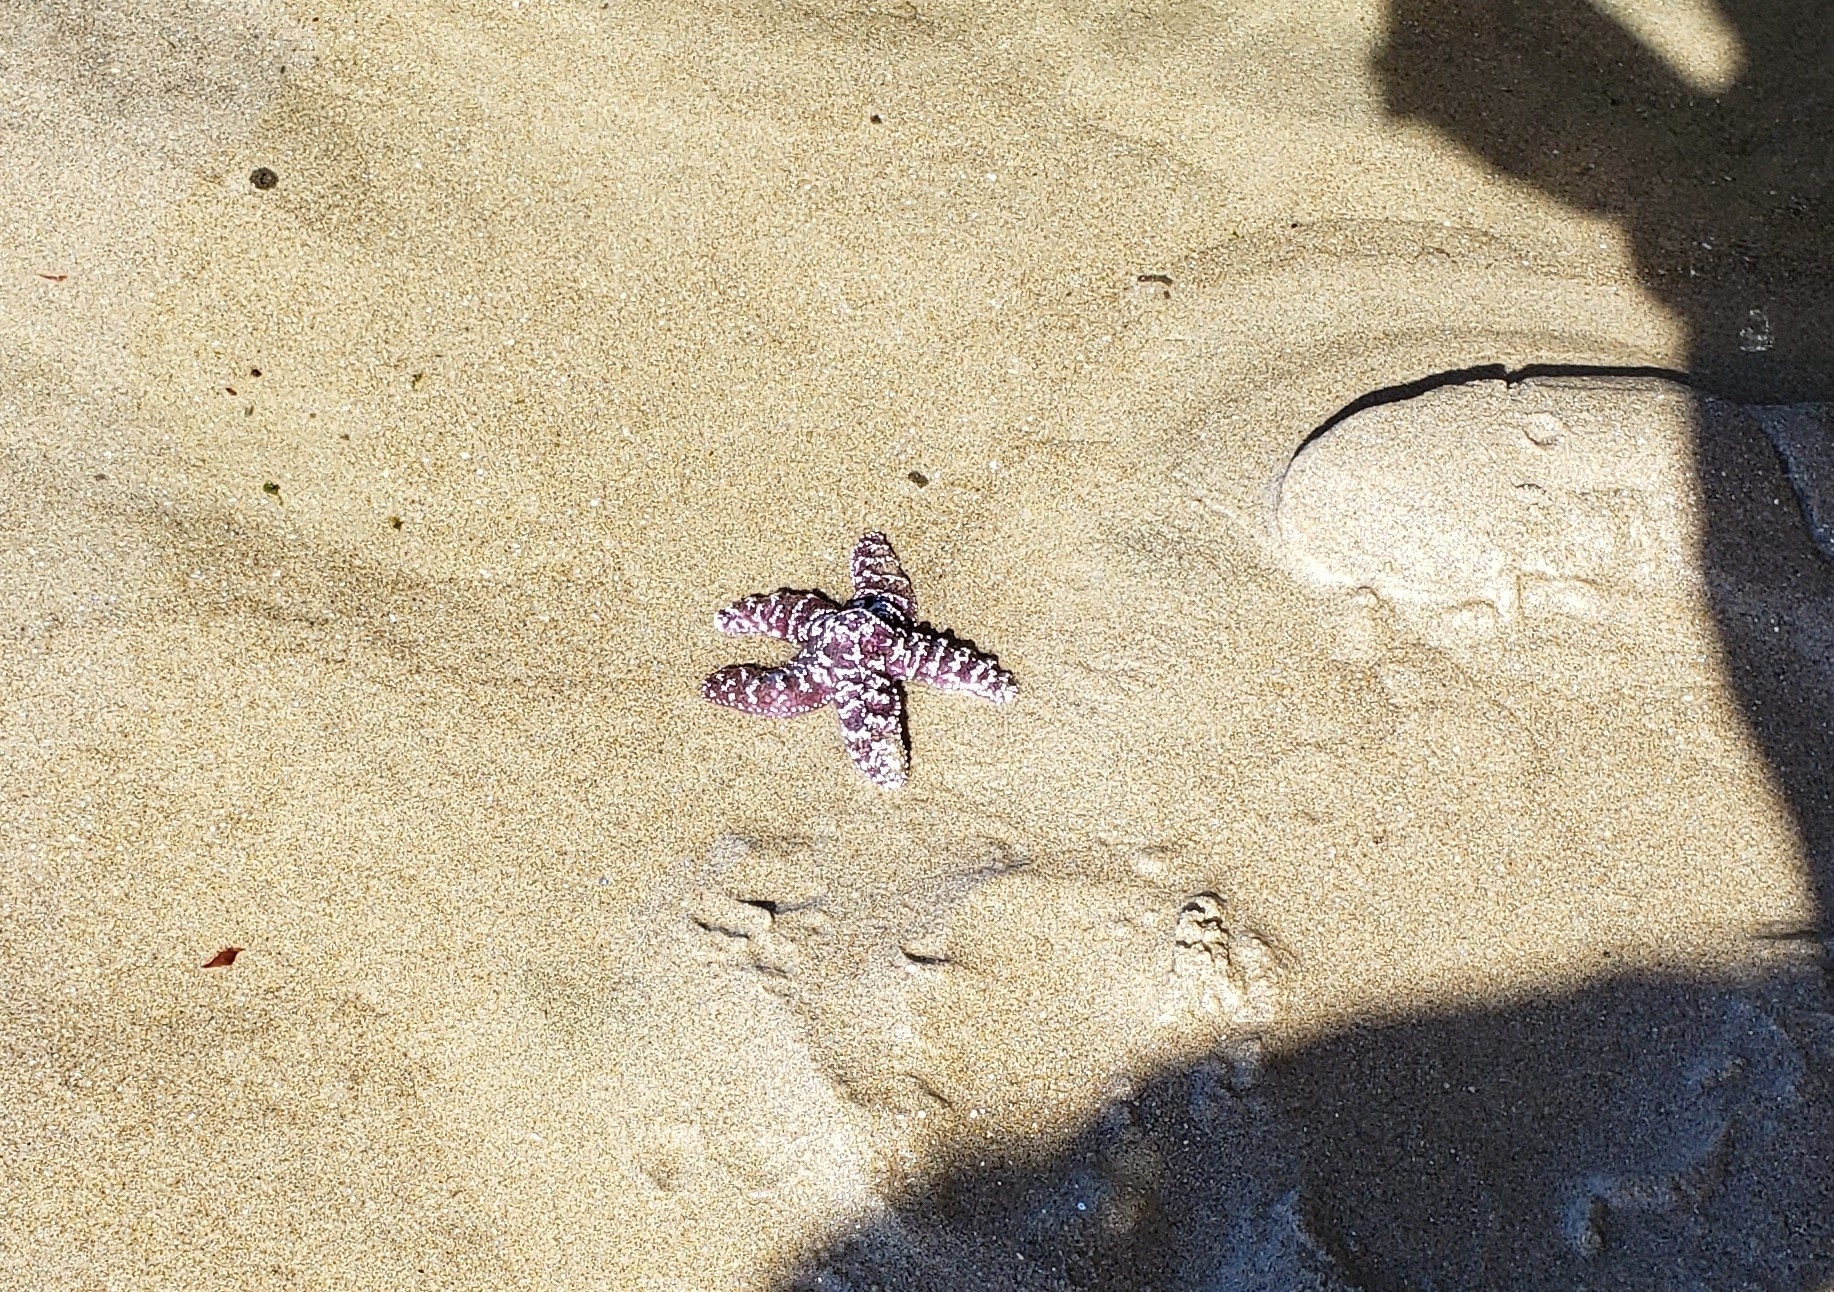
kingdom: Animalia
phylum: Echinodermata
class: Asteroidea
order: Forcipulatida
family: Asteriidae
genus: Pisaster
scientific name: Pisaster ochraceus
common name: Ochre stars
